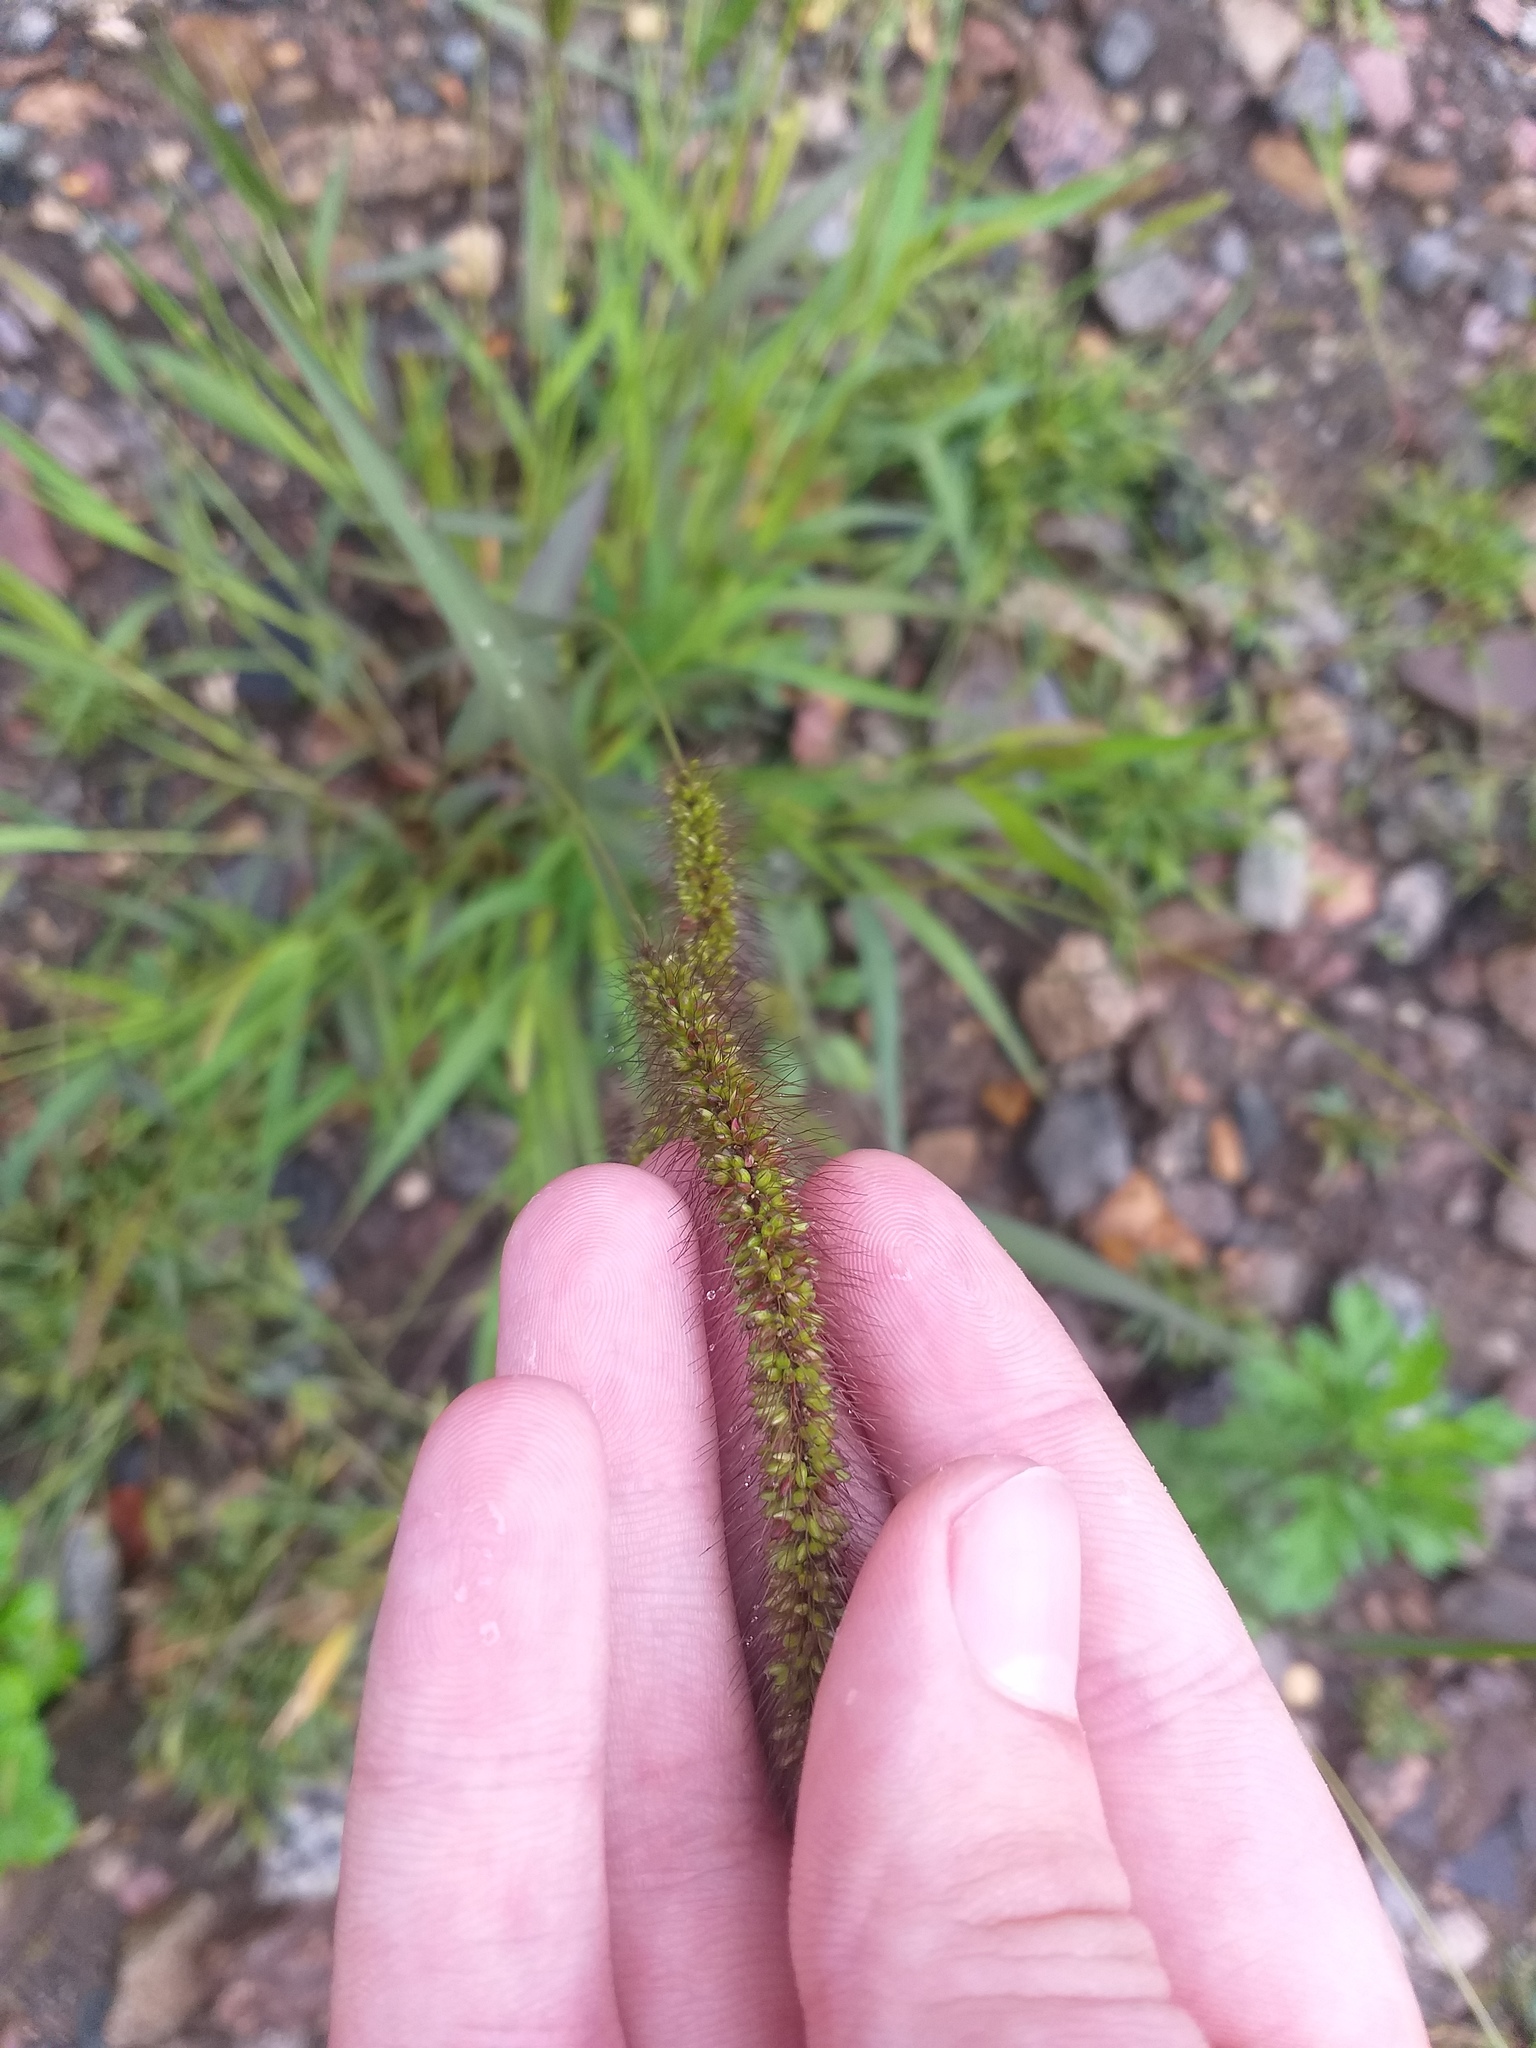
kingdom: Plantae
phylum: Tracheophyta
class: Liliopsida
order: Poales
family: Poaceae
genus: Setaria
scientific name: Setaria viridis
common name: Green bristlegrass
